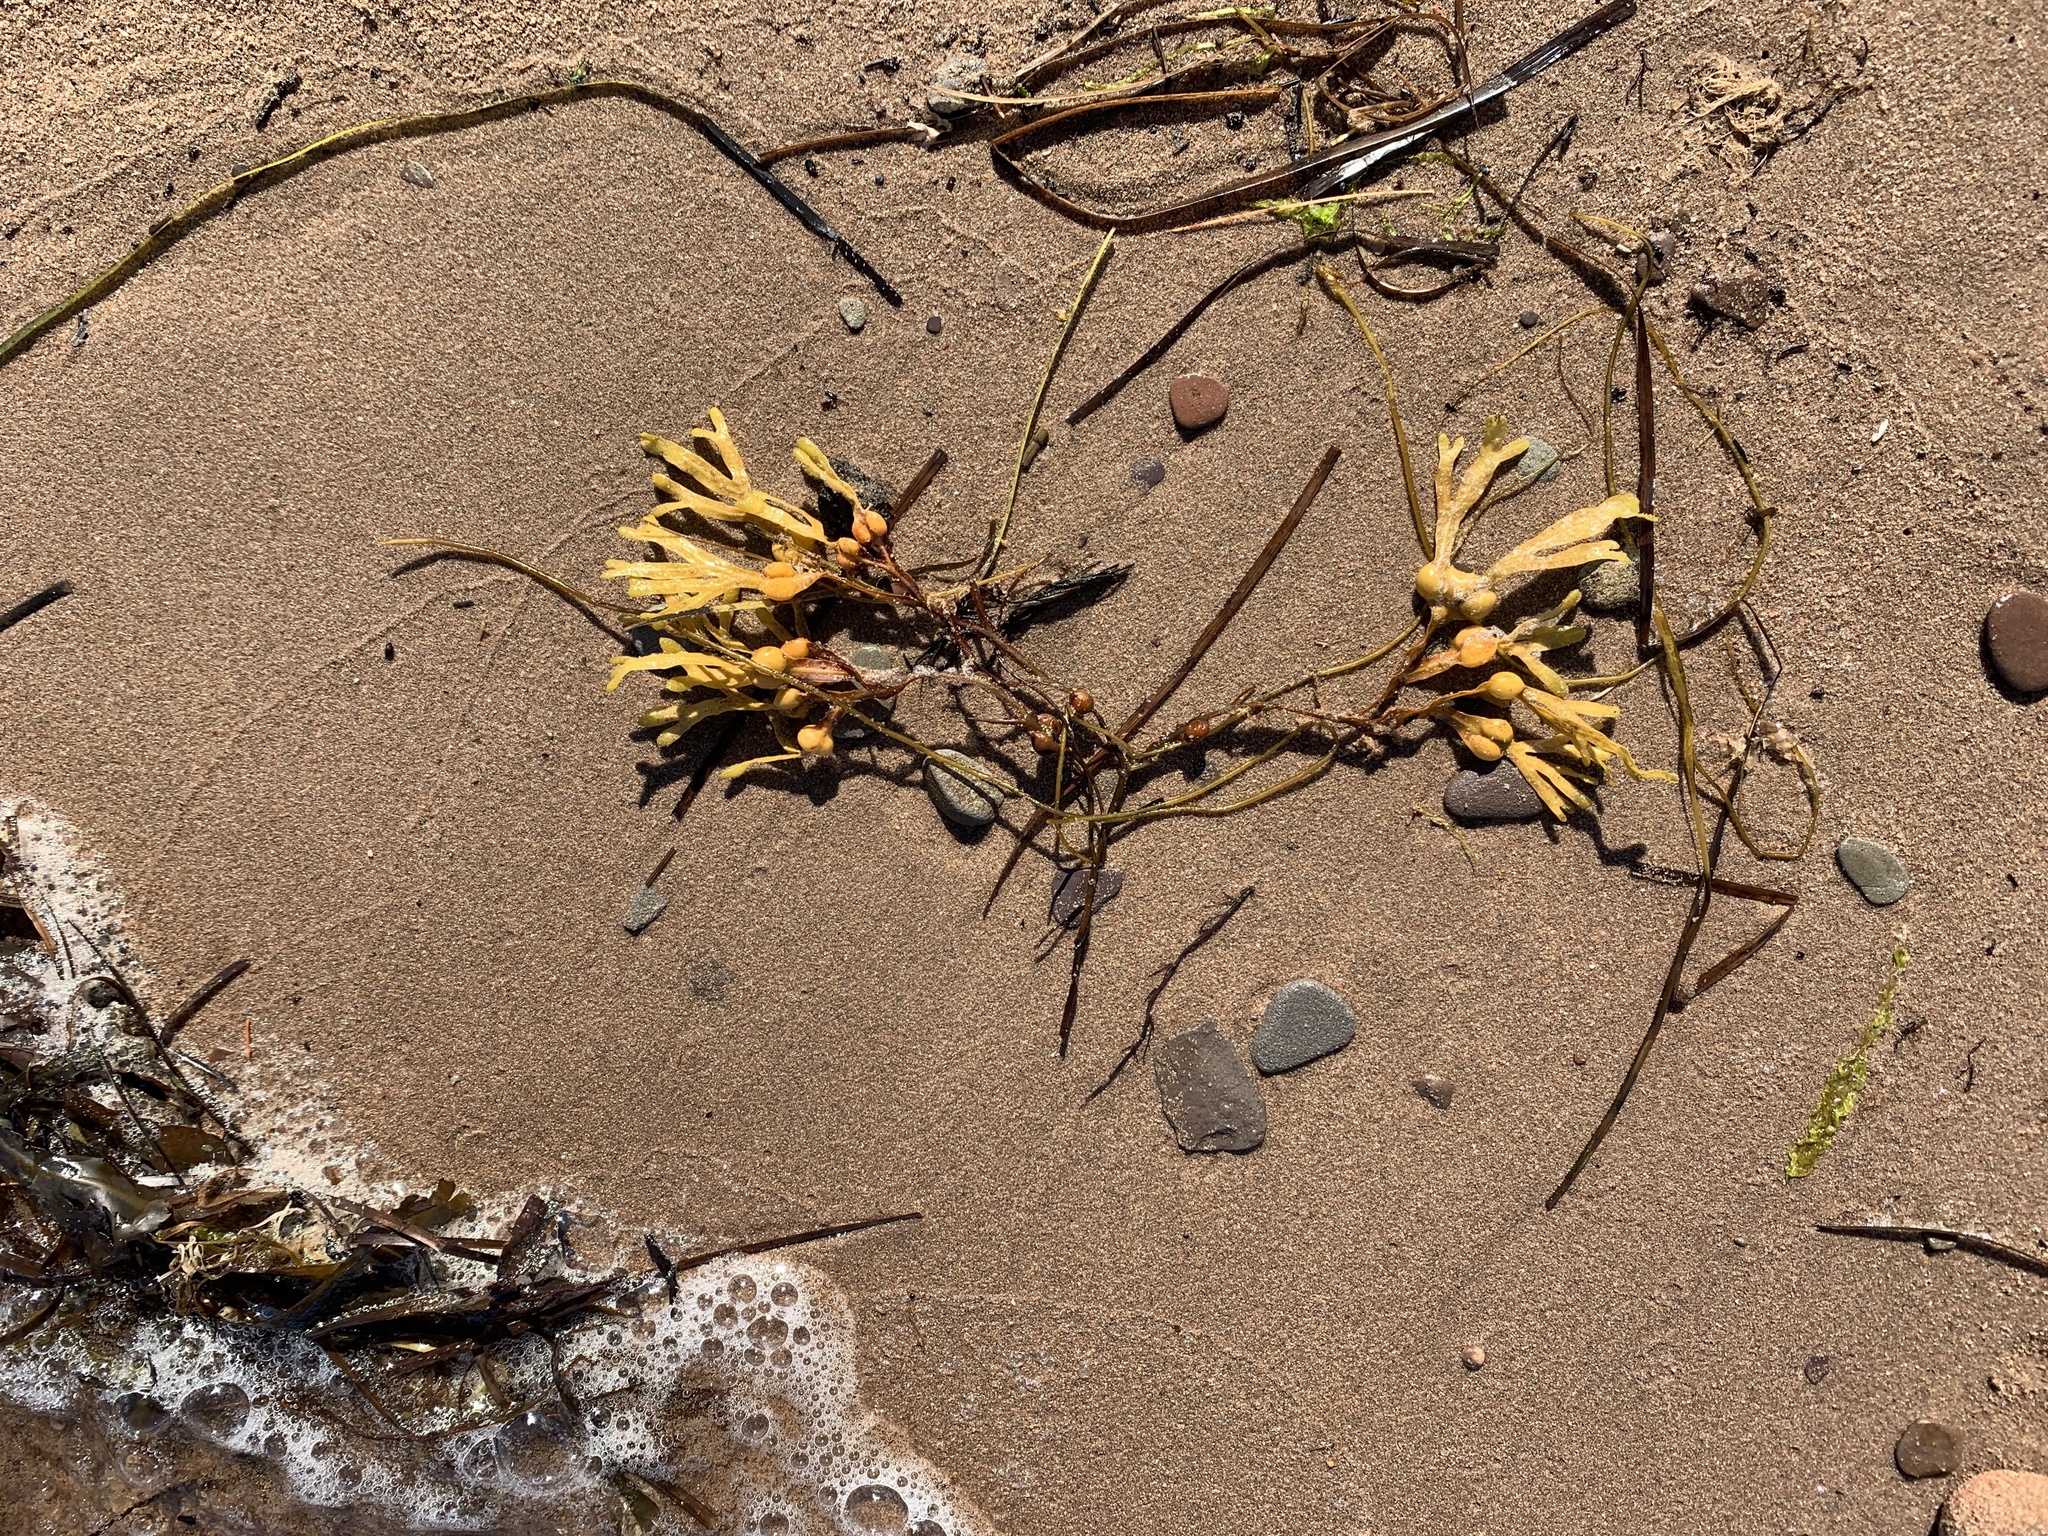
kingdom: Chromista
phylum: Ochrophyta
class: Phaeophyceae
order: Fucales
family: Fucaceae
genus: Fucus
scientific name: Fucus vesiculosus
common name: Bladder wrack
